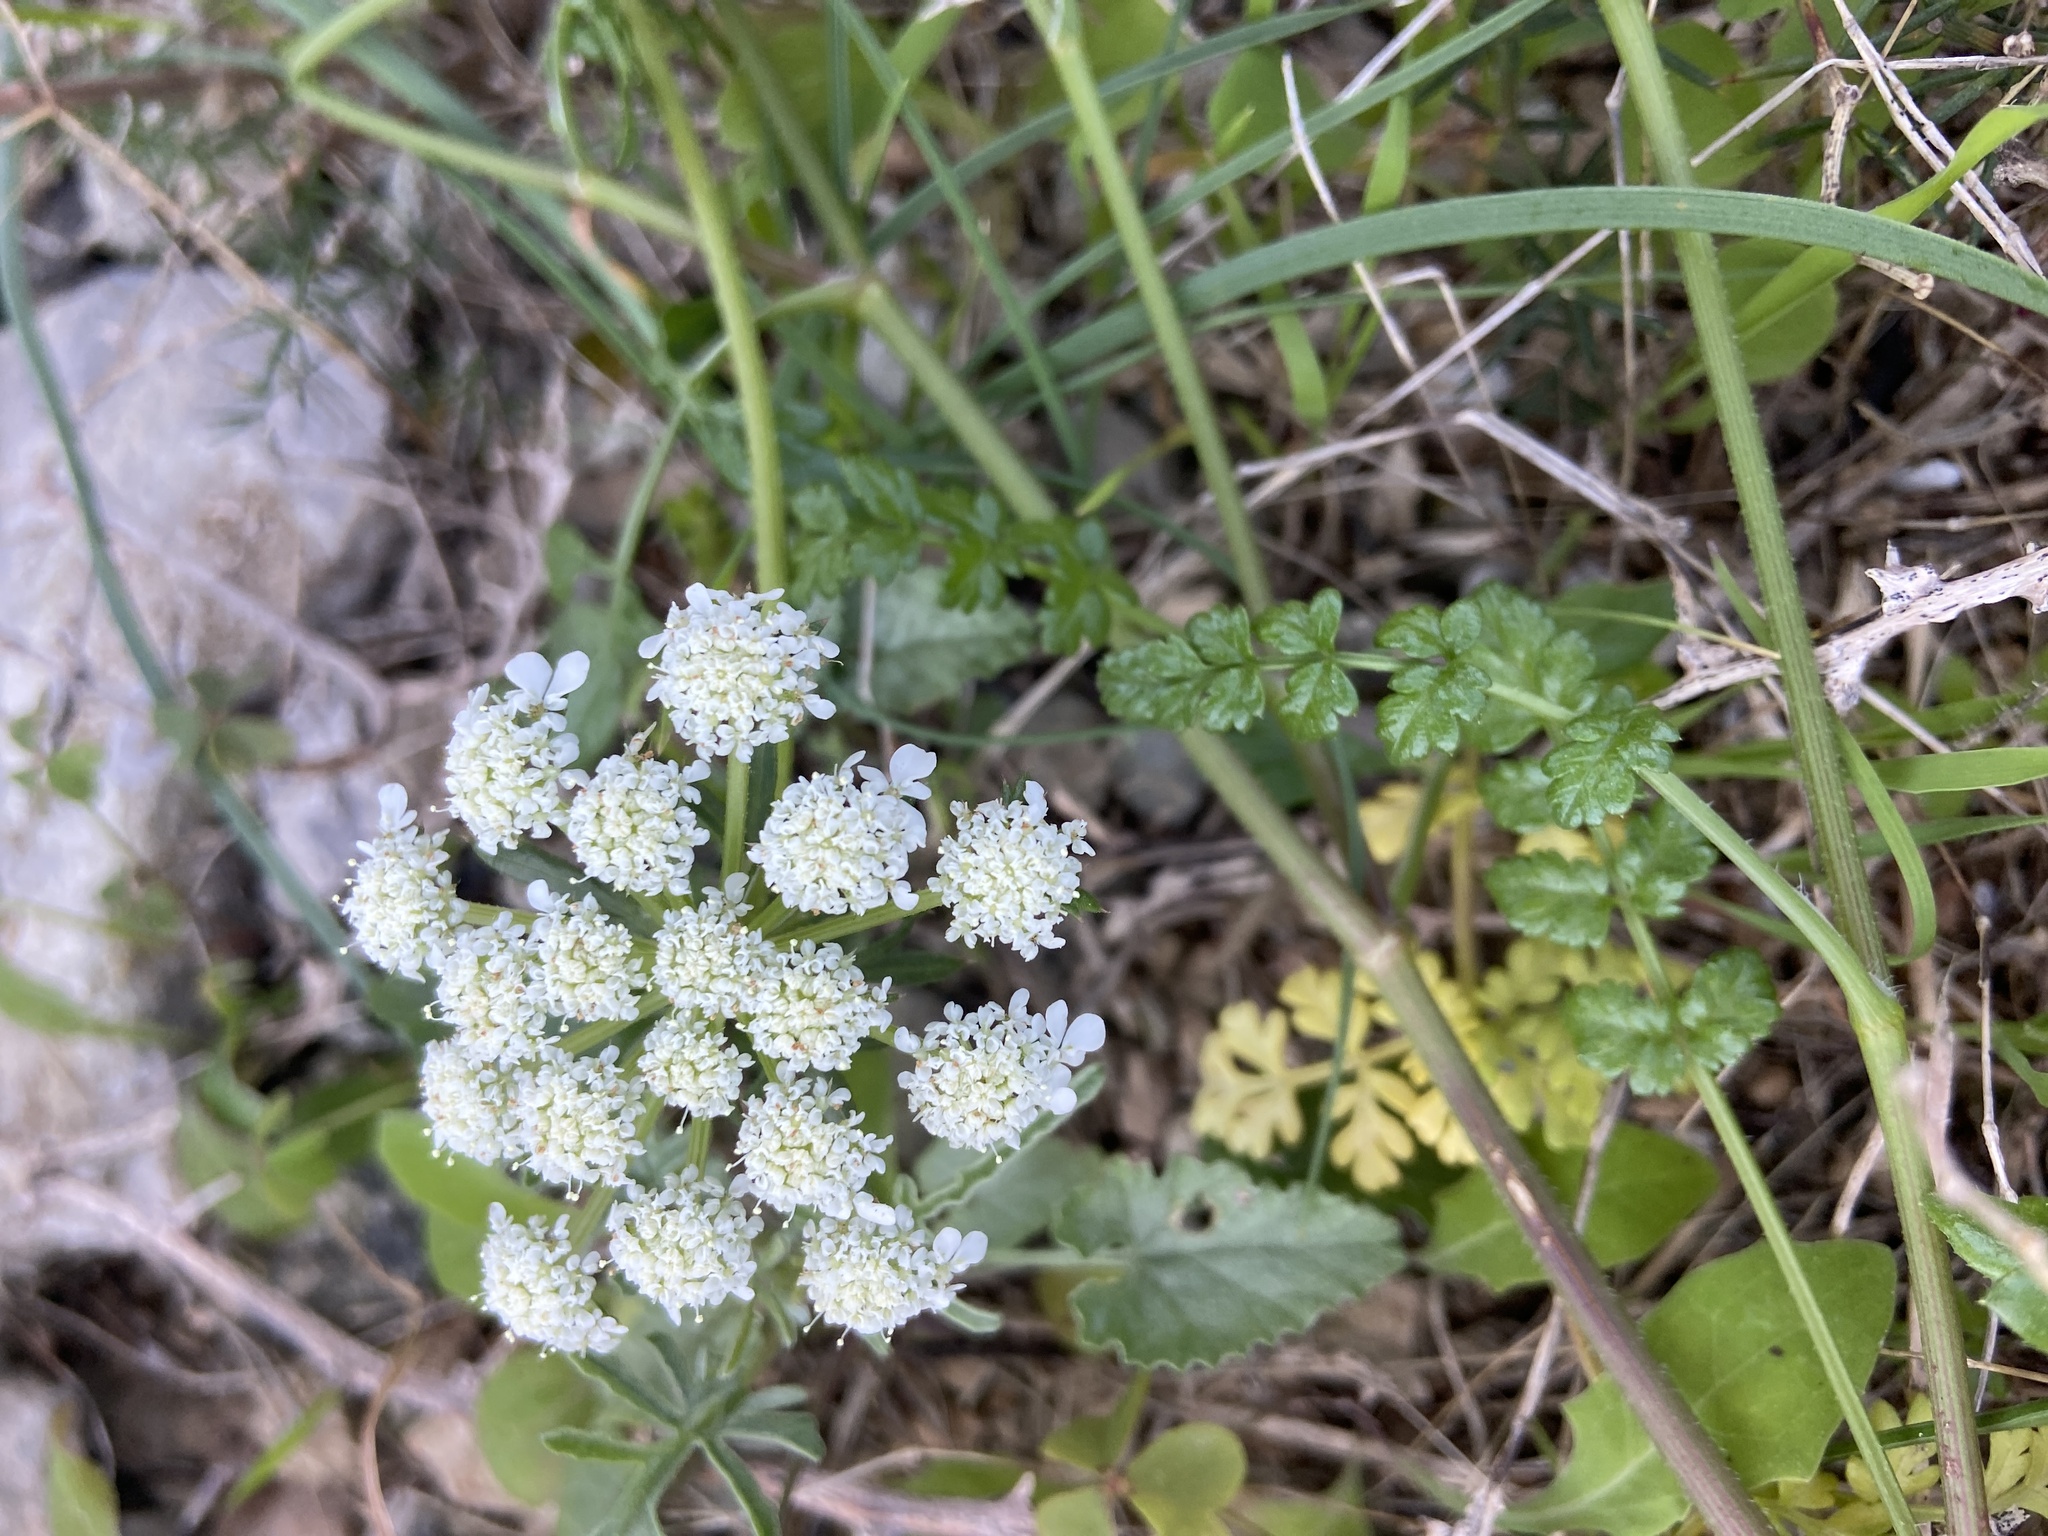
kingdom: Plantae
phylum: Tracheophyta
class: Magnoliopsida
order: Apiales
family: Apiaceae
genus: Daucus
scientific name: Daucus carota
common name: Wild carrot
